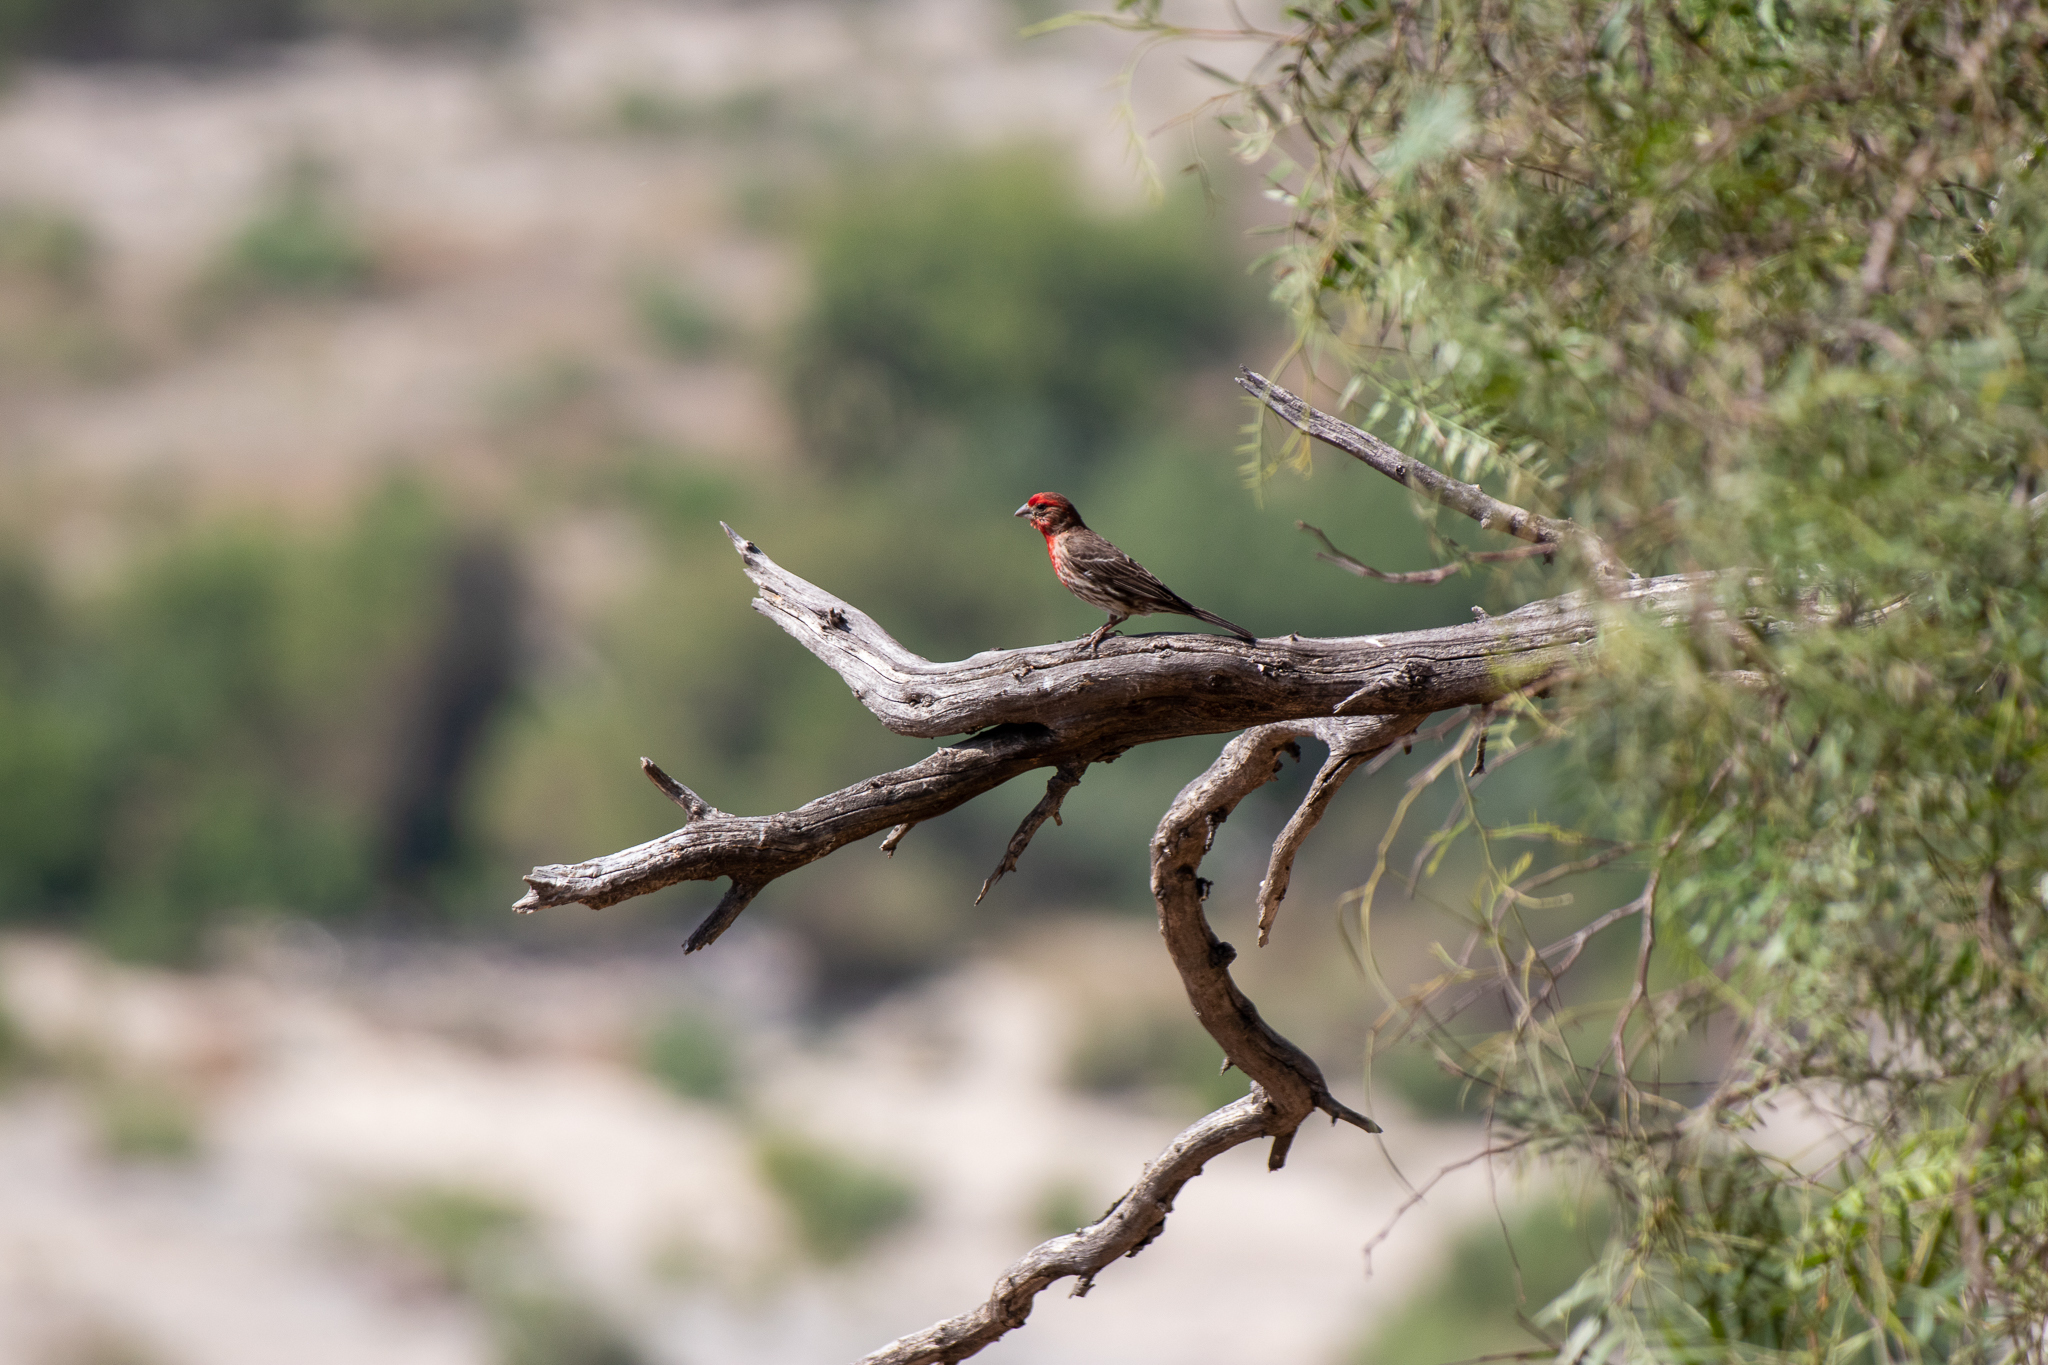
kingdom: Animalia
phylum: Chordata
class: Aves
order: Passeriformes
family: Fringillidae
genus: Haemorhous
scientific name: Haemorhous mexicanus
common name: House finch
